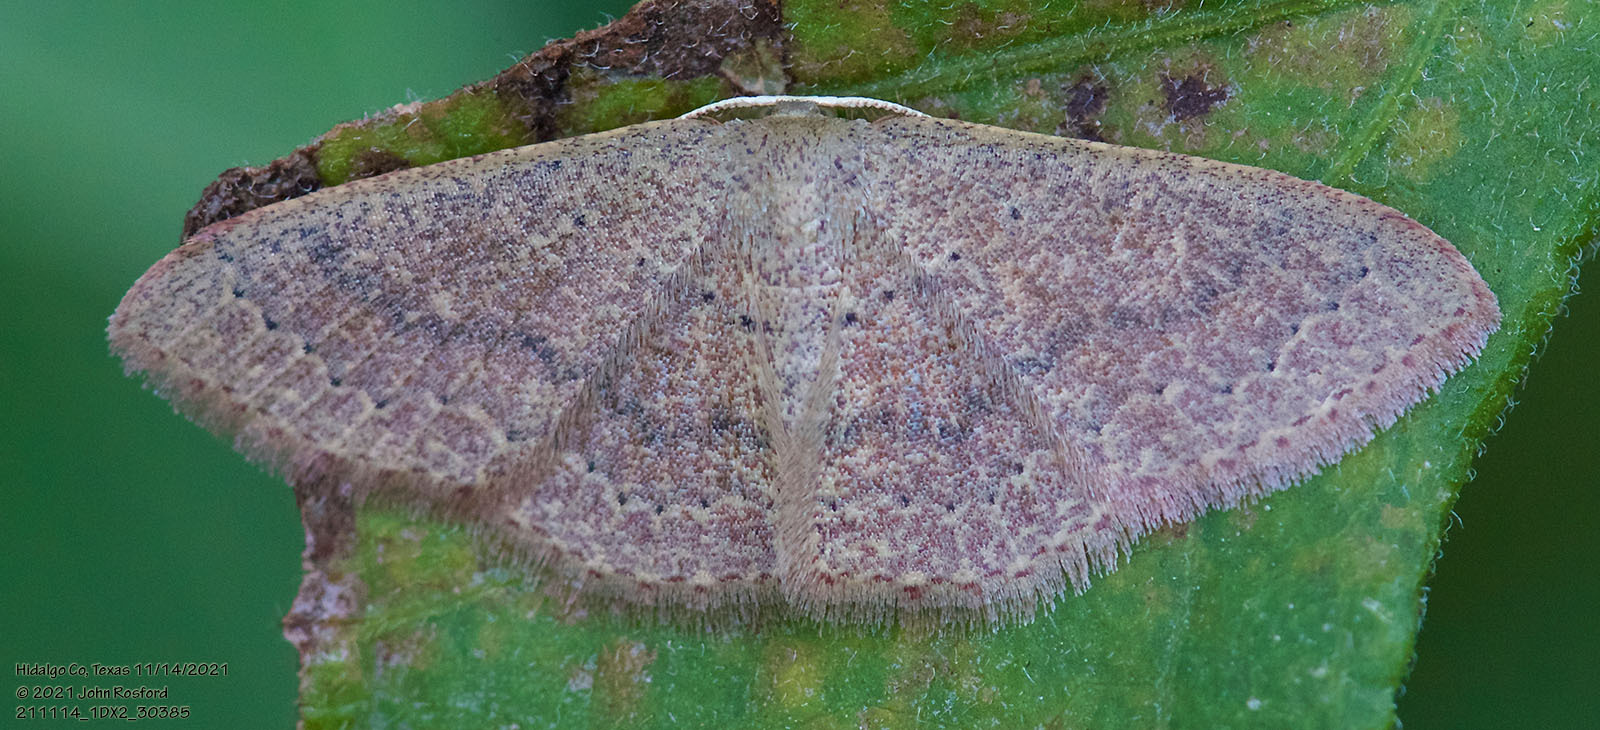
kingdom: Animalia
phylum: Arthropoda
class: Insecta
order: Lepidoptera
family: Geometridae
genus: Pleuroprucha
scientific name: Pleuroprucha insulsaria
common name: Common tan wave
